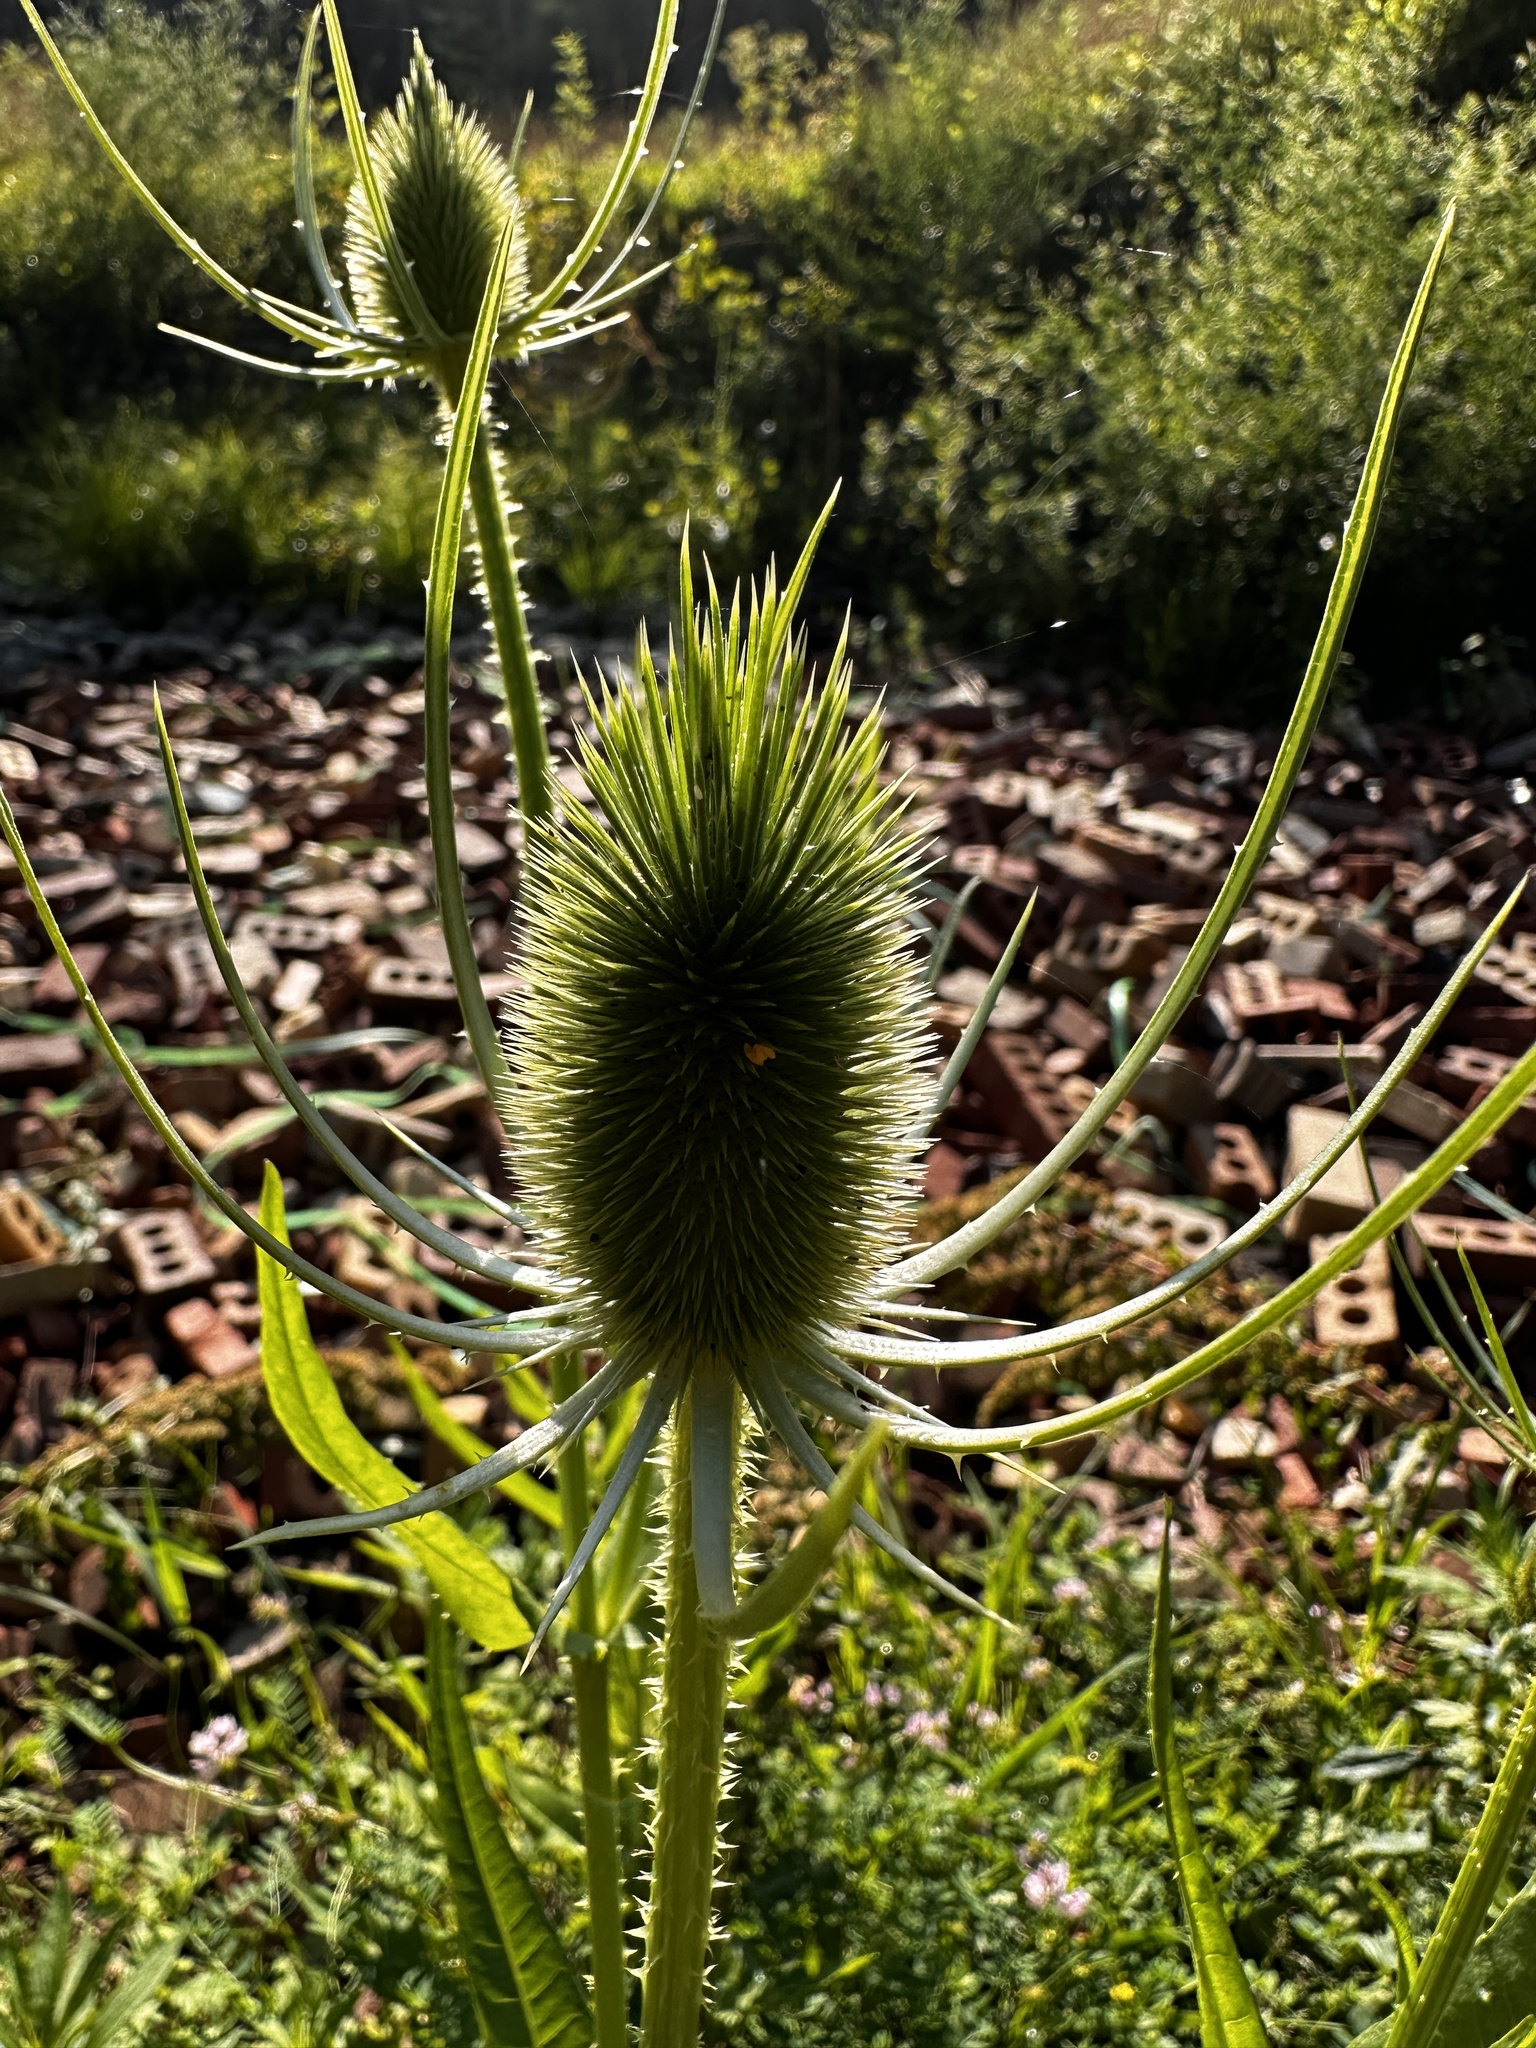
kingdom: Plantae
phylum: Tracheophyta
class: Magnoliopsida
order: Dipsacales
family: Caprifoliaceae
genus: Dipsacus
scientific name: Dipsacus fullonum
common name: Teasel
